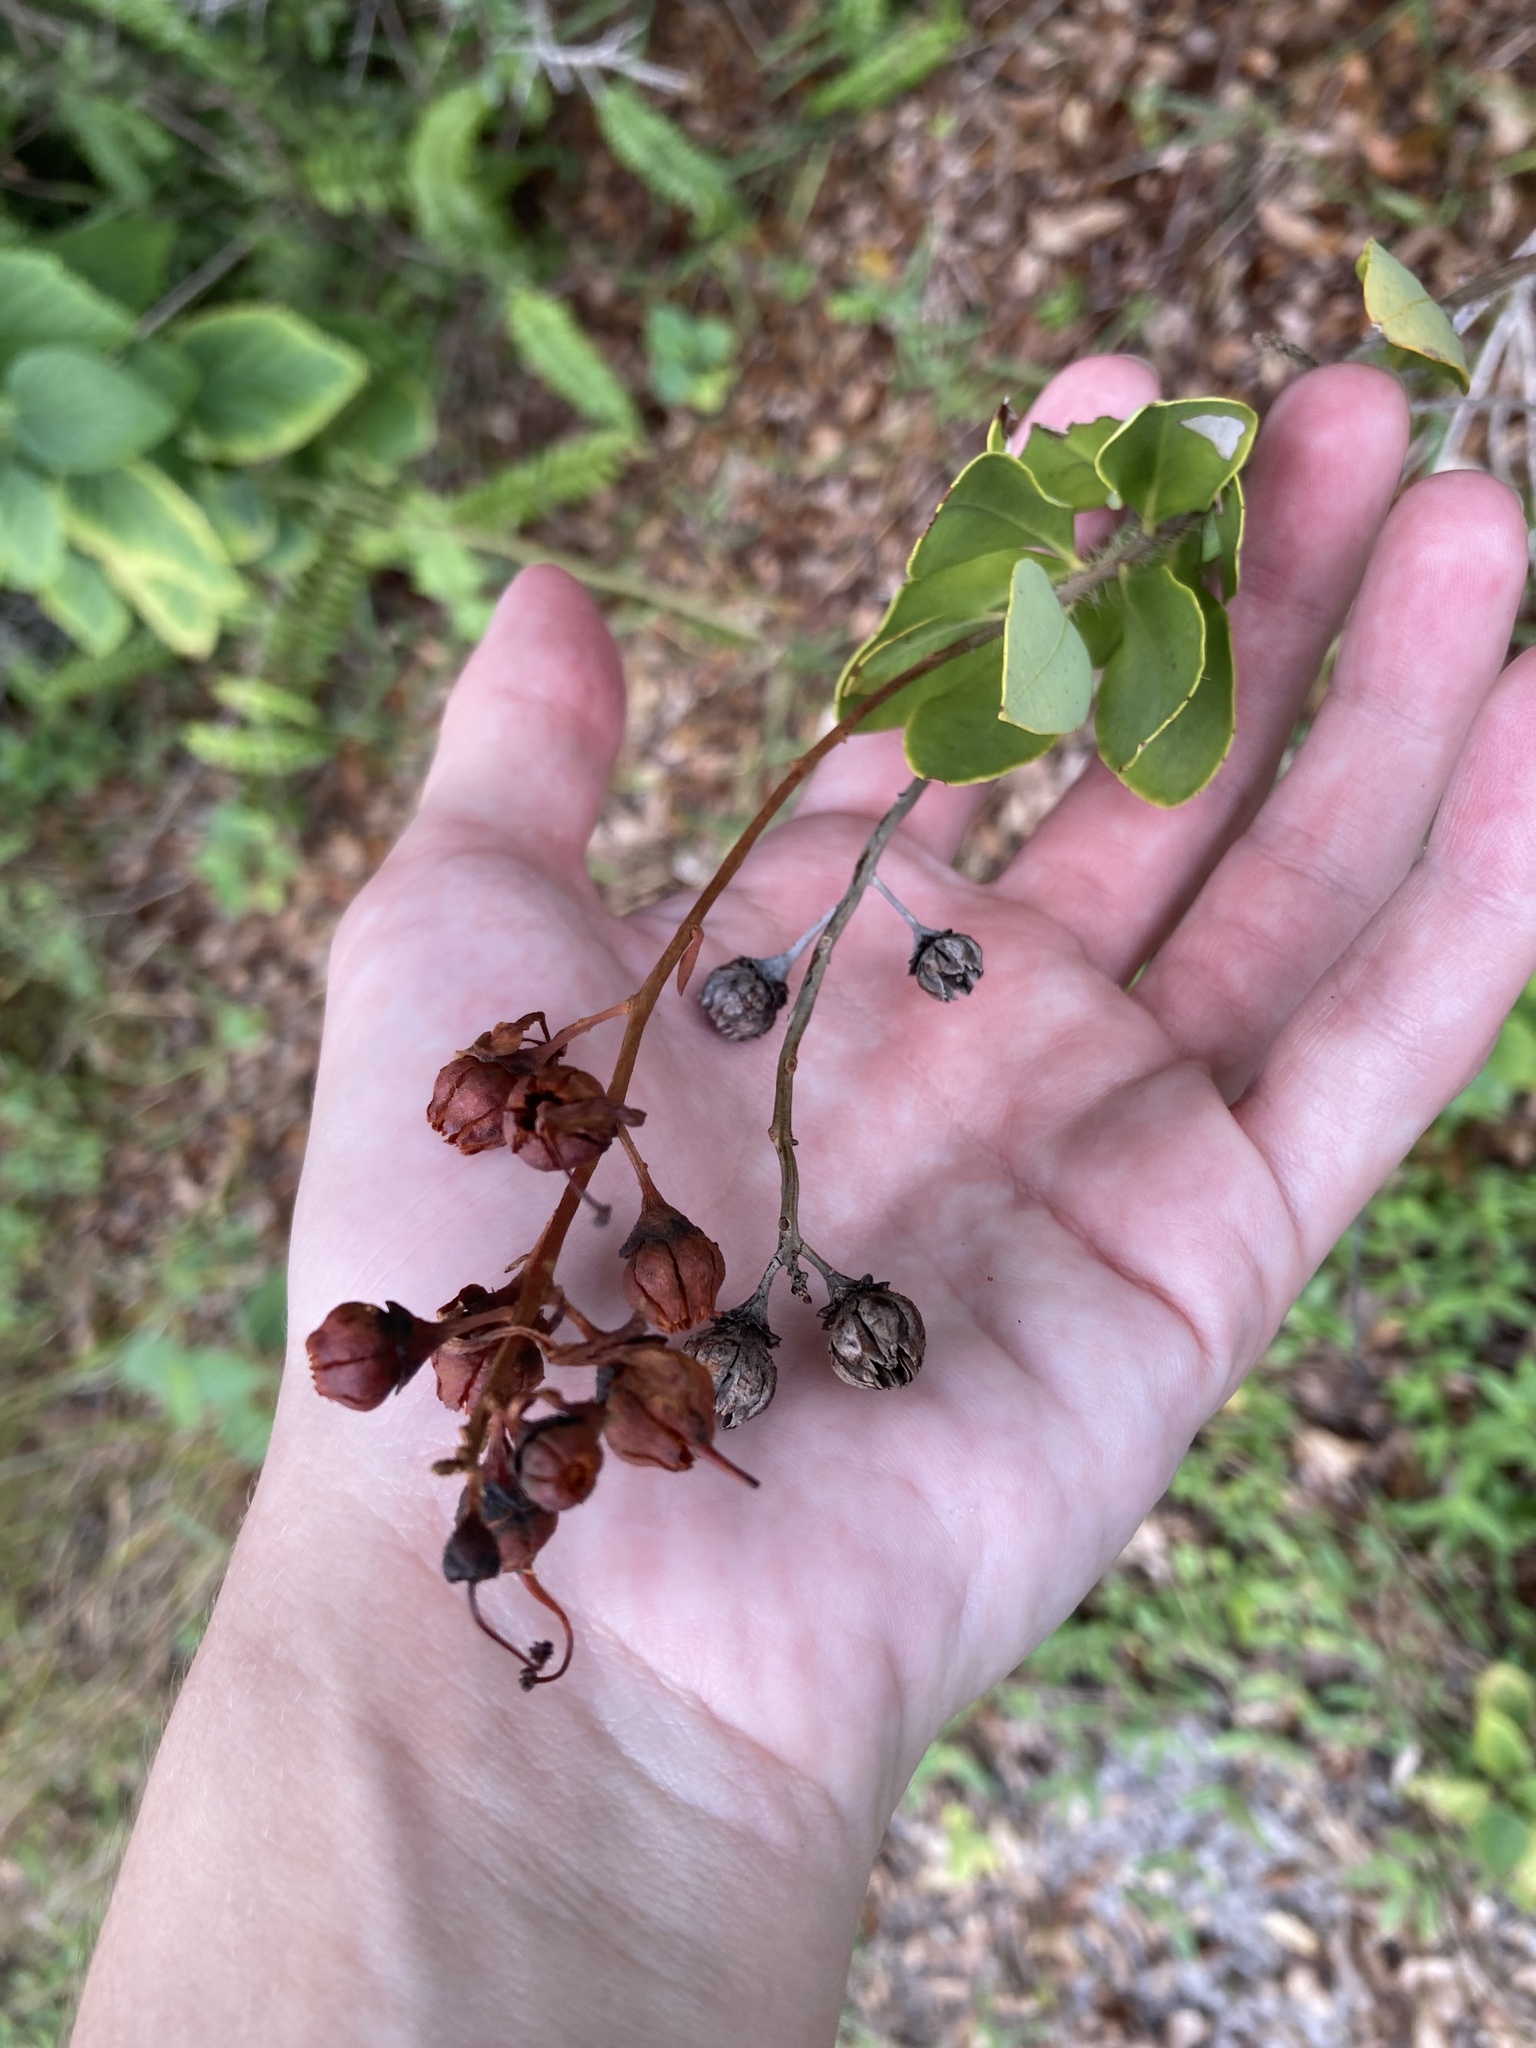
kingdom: Plantae
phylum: Tracheophyta
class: Magnoliopsida
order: Ericales
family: Ericaceae
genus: Bejaria
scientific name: Bejaria racemosa
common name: Tarflower
